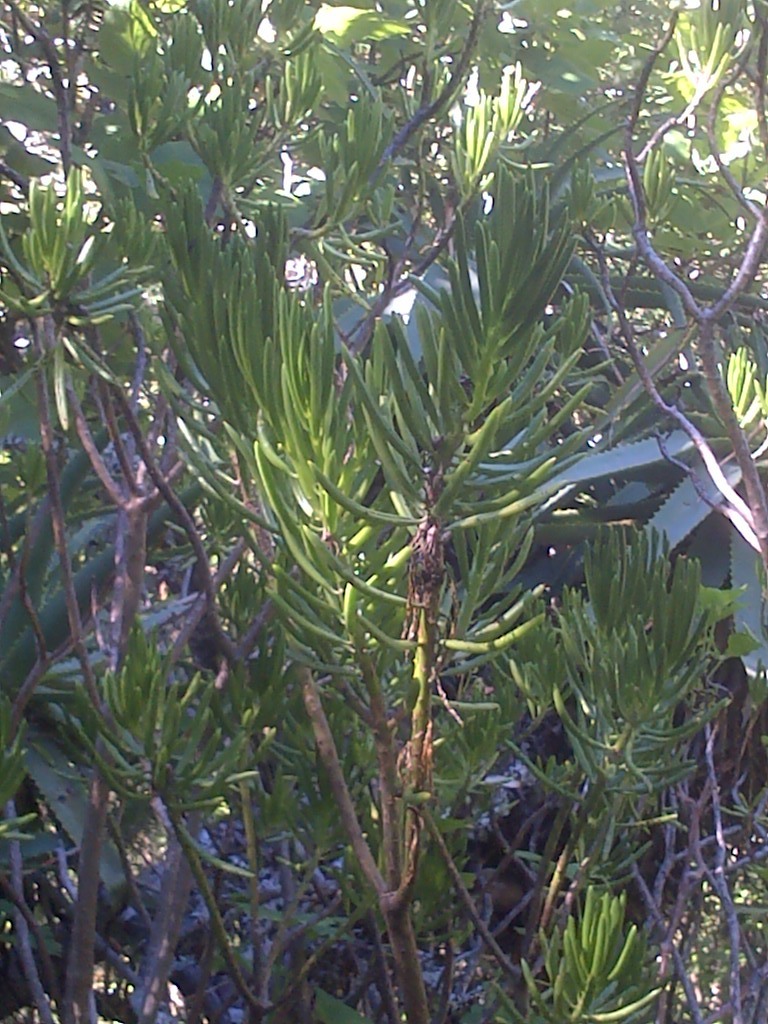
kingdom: Plantae
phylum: Tracheophyta
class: Magnoliopsida
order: Asterales
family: Asteraceae
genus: Kleinia
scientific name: Kleinia barbertonica
